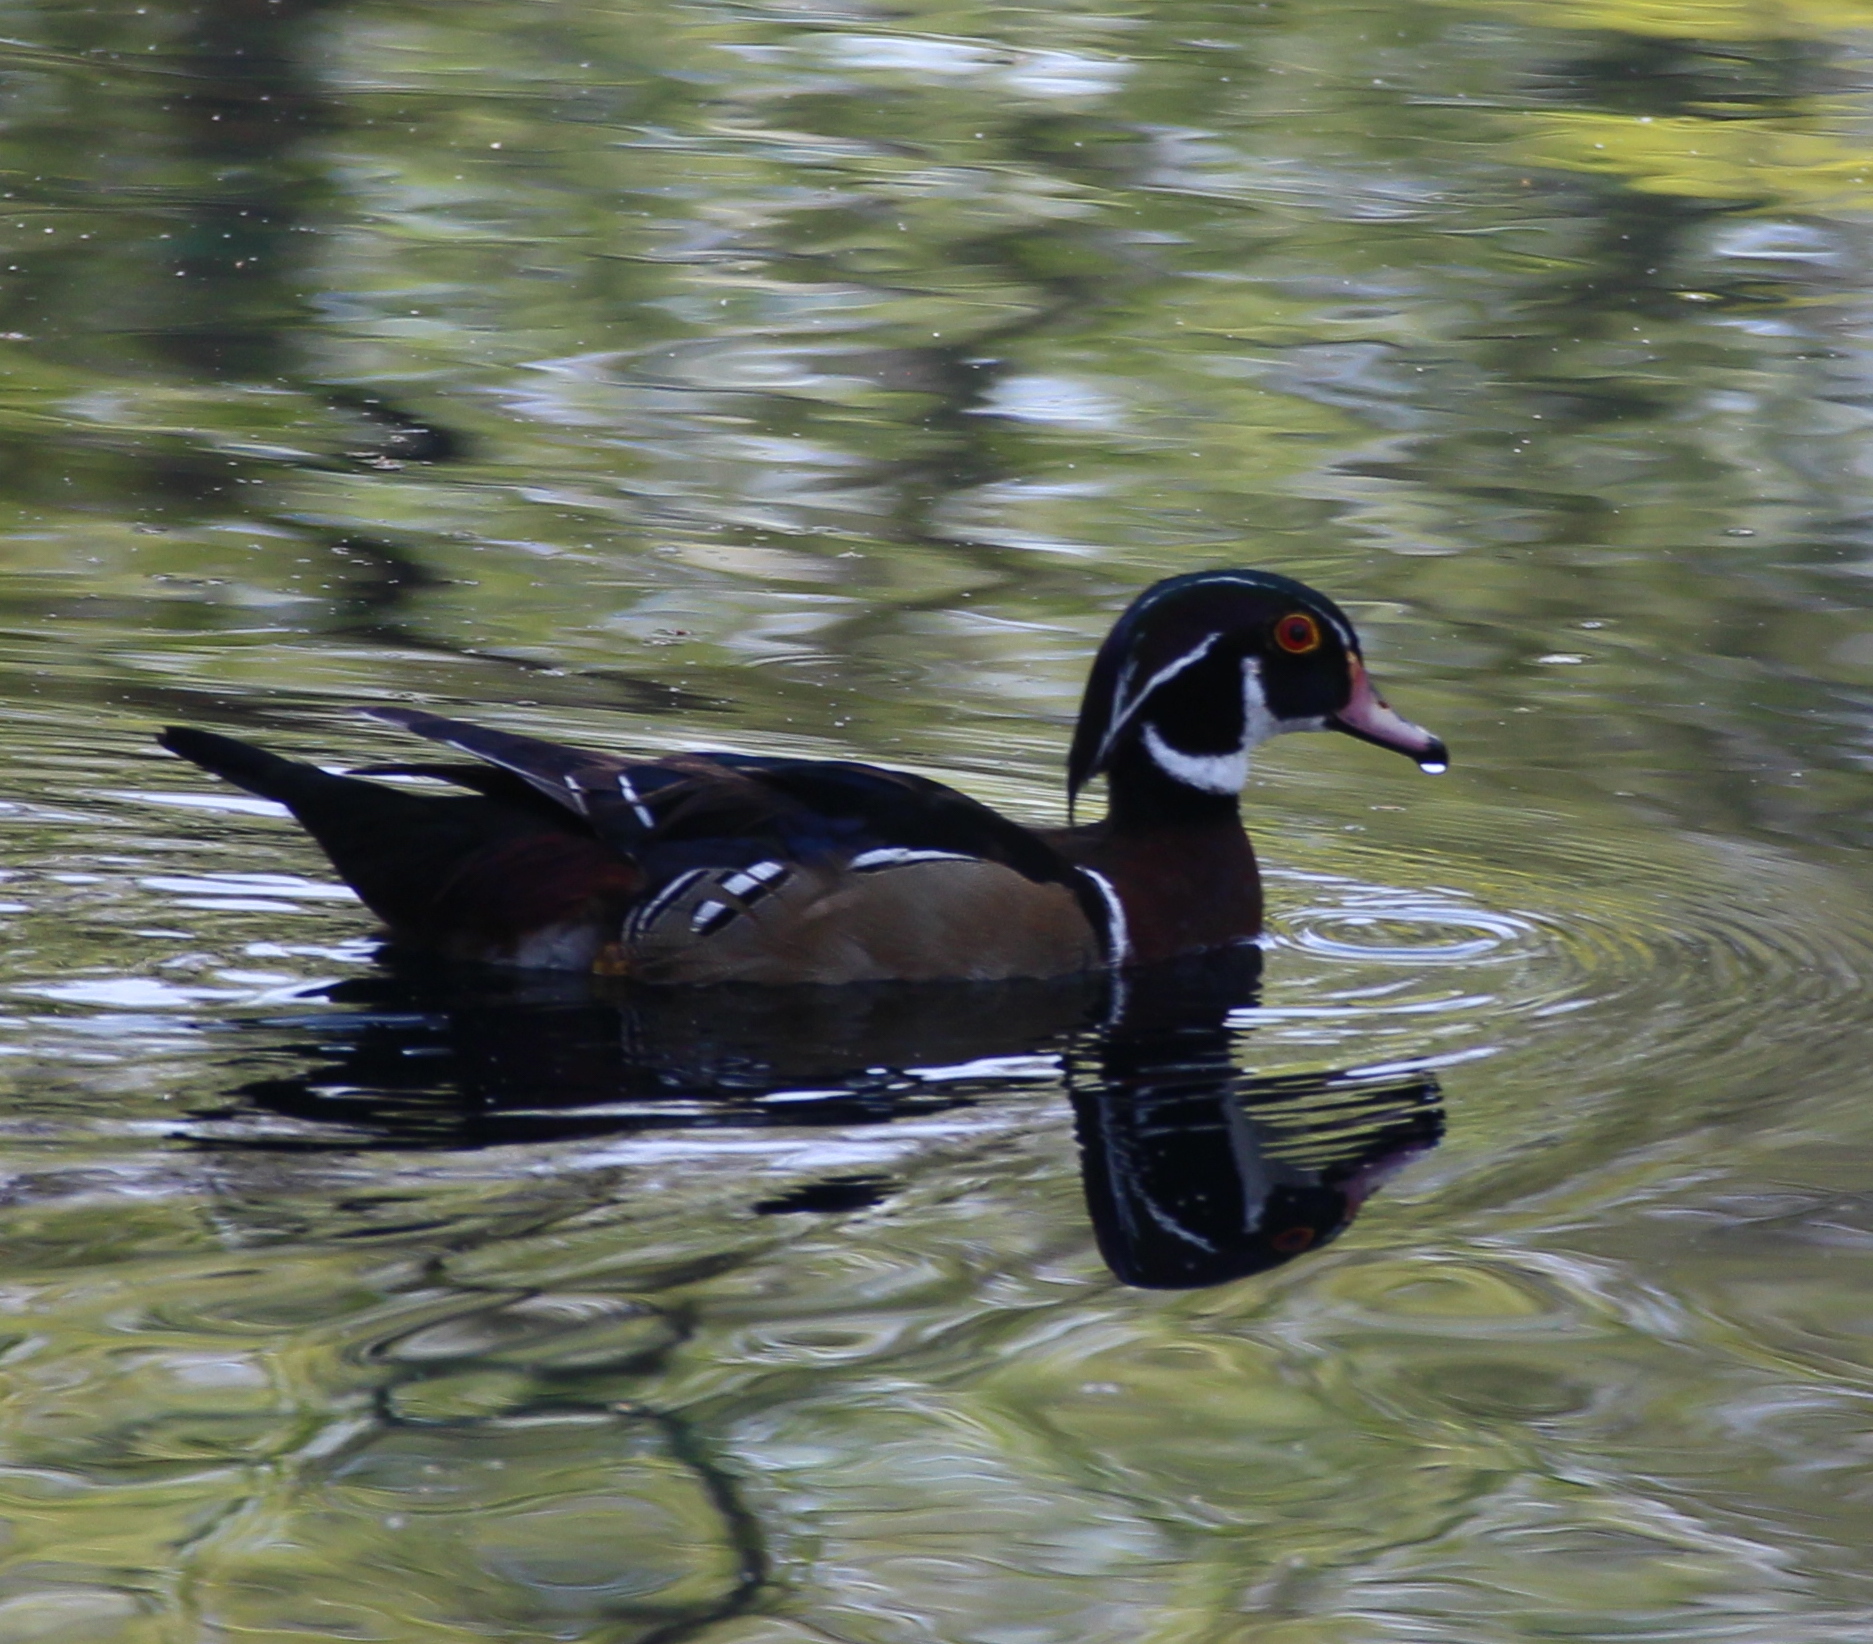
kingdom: Animalia
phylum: Chordata
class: Aves
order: Anseriformes
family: Anatidae
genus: Aix
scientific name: Aix sponsa
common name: Wood duck
